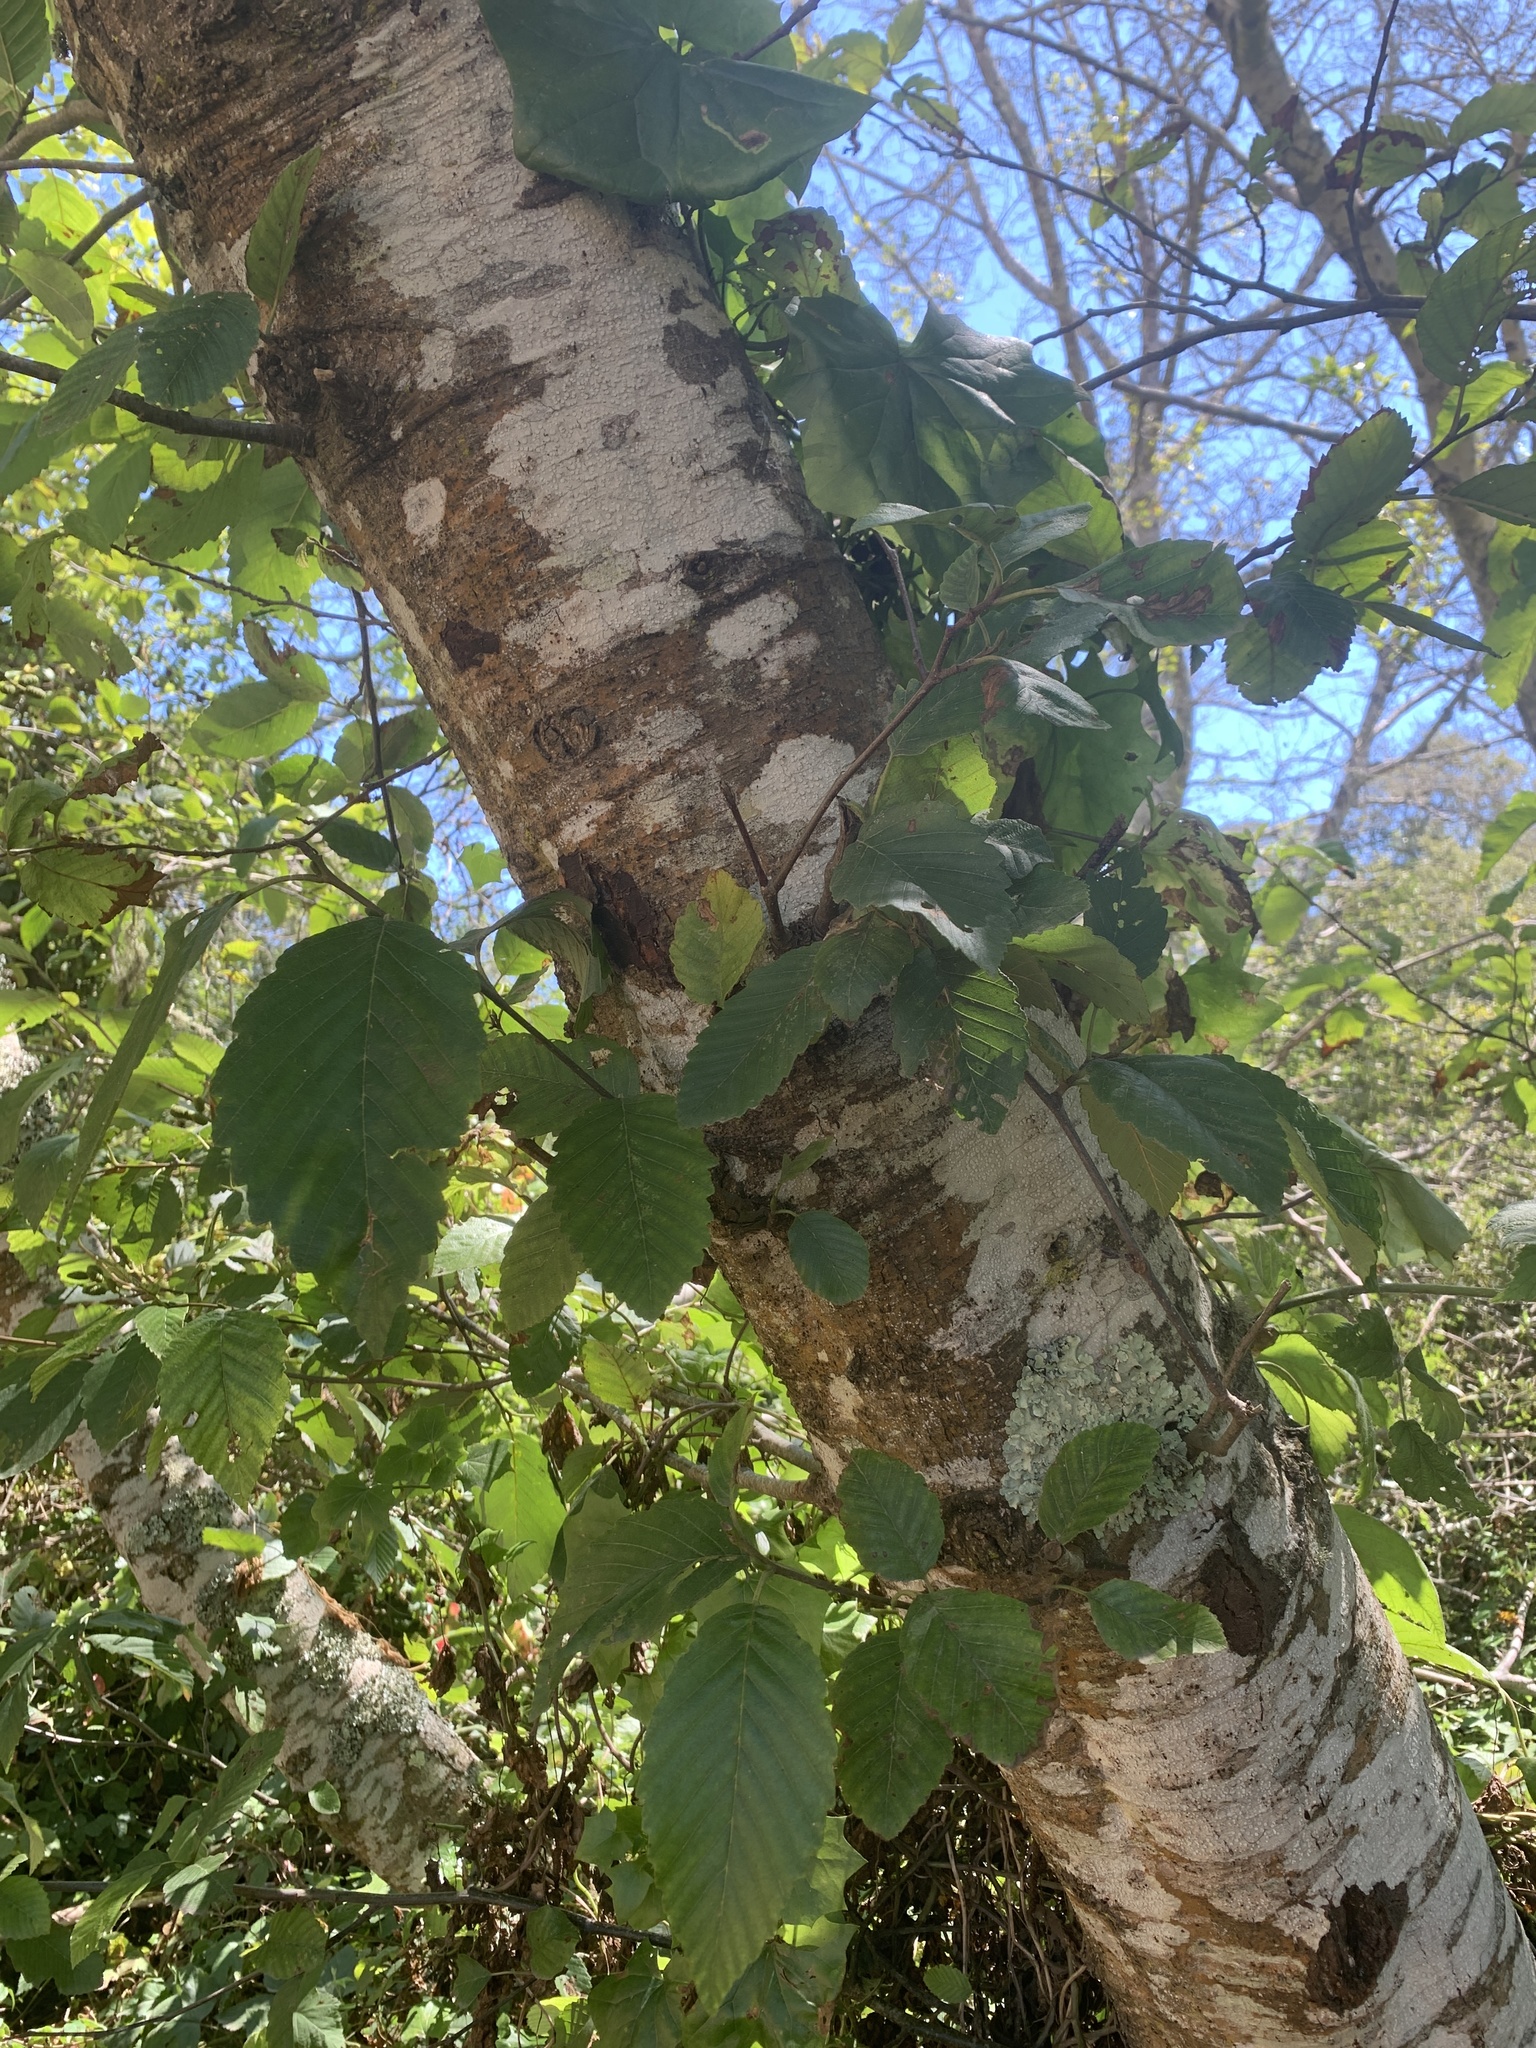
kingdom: Plantae
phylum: Tracheophyta
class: Magnoliopsida
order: Fagales
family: Betulaceae
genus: Alnus
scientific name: Alnus rubra
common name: Red alder
